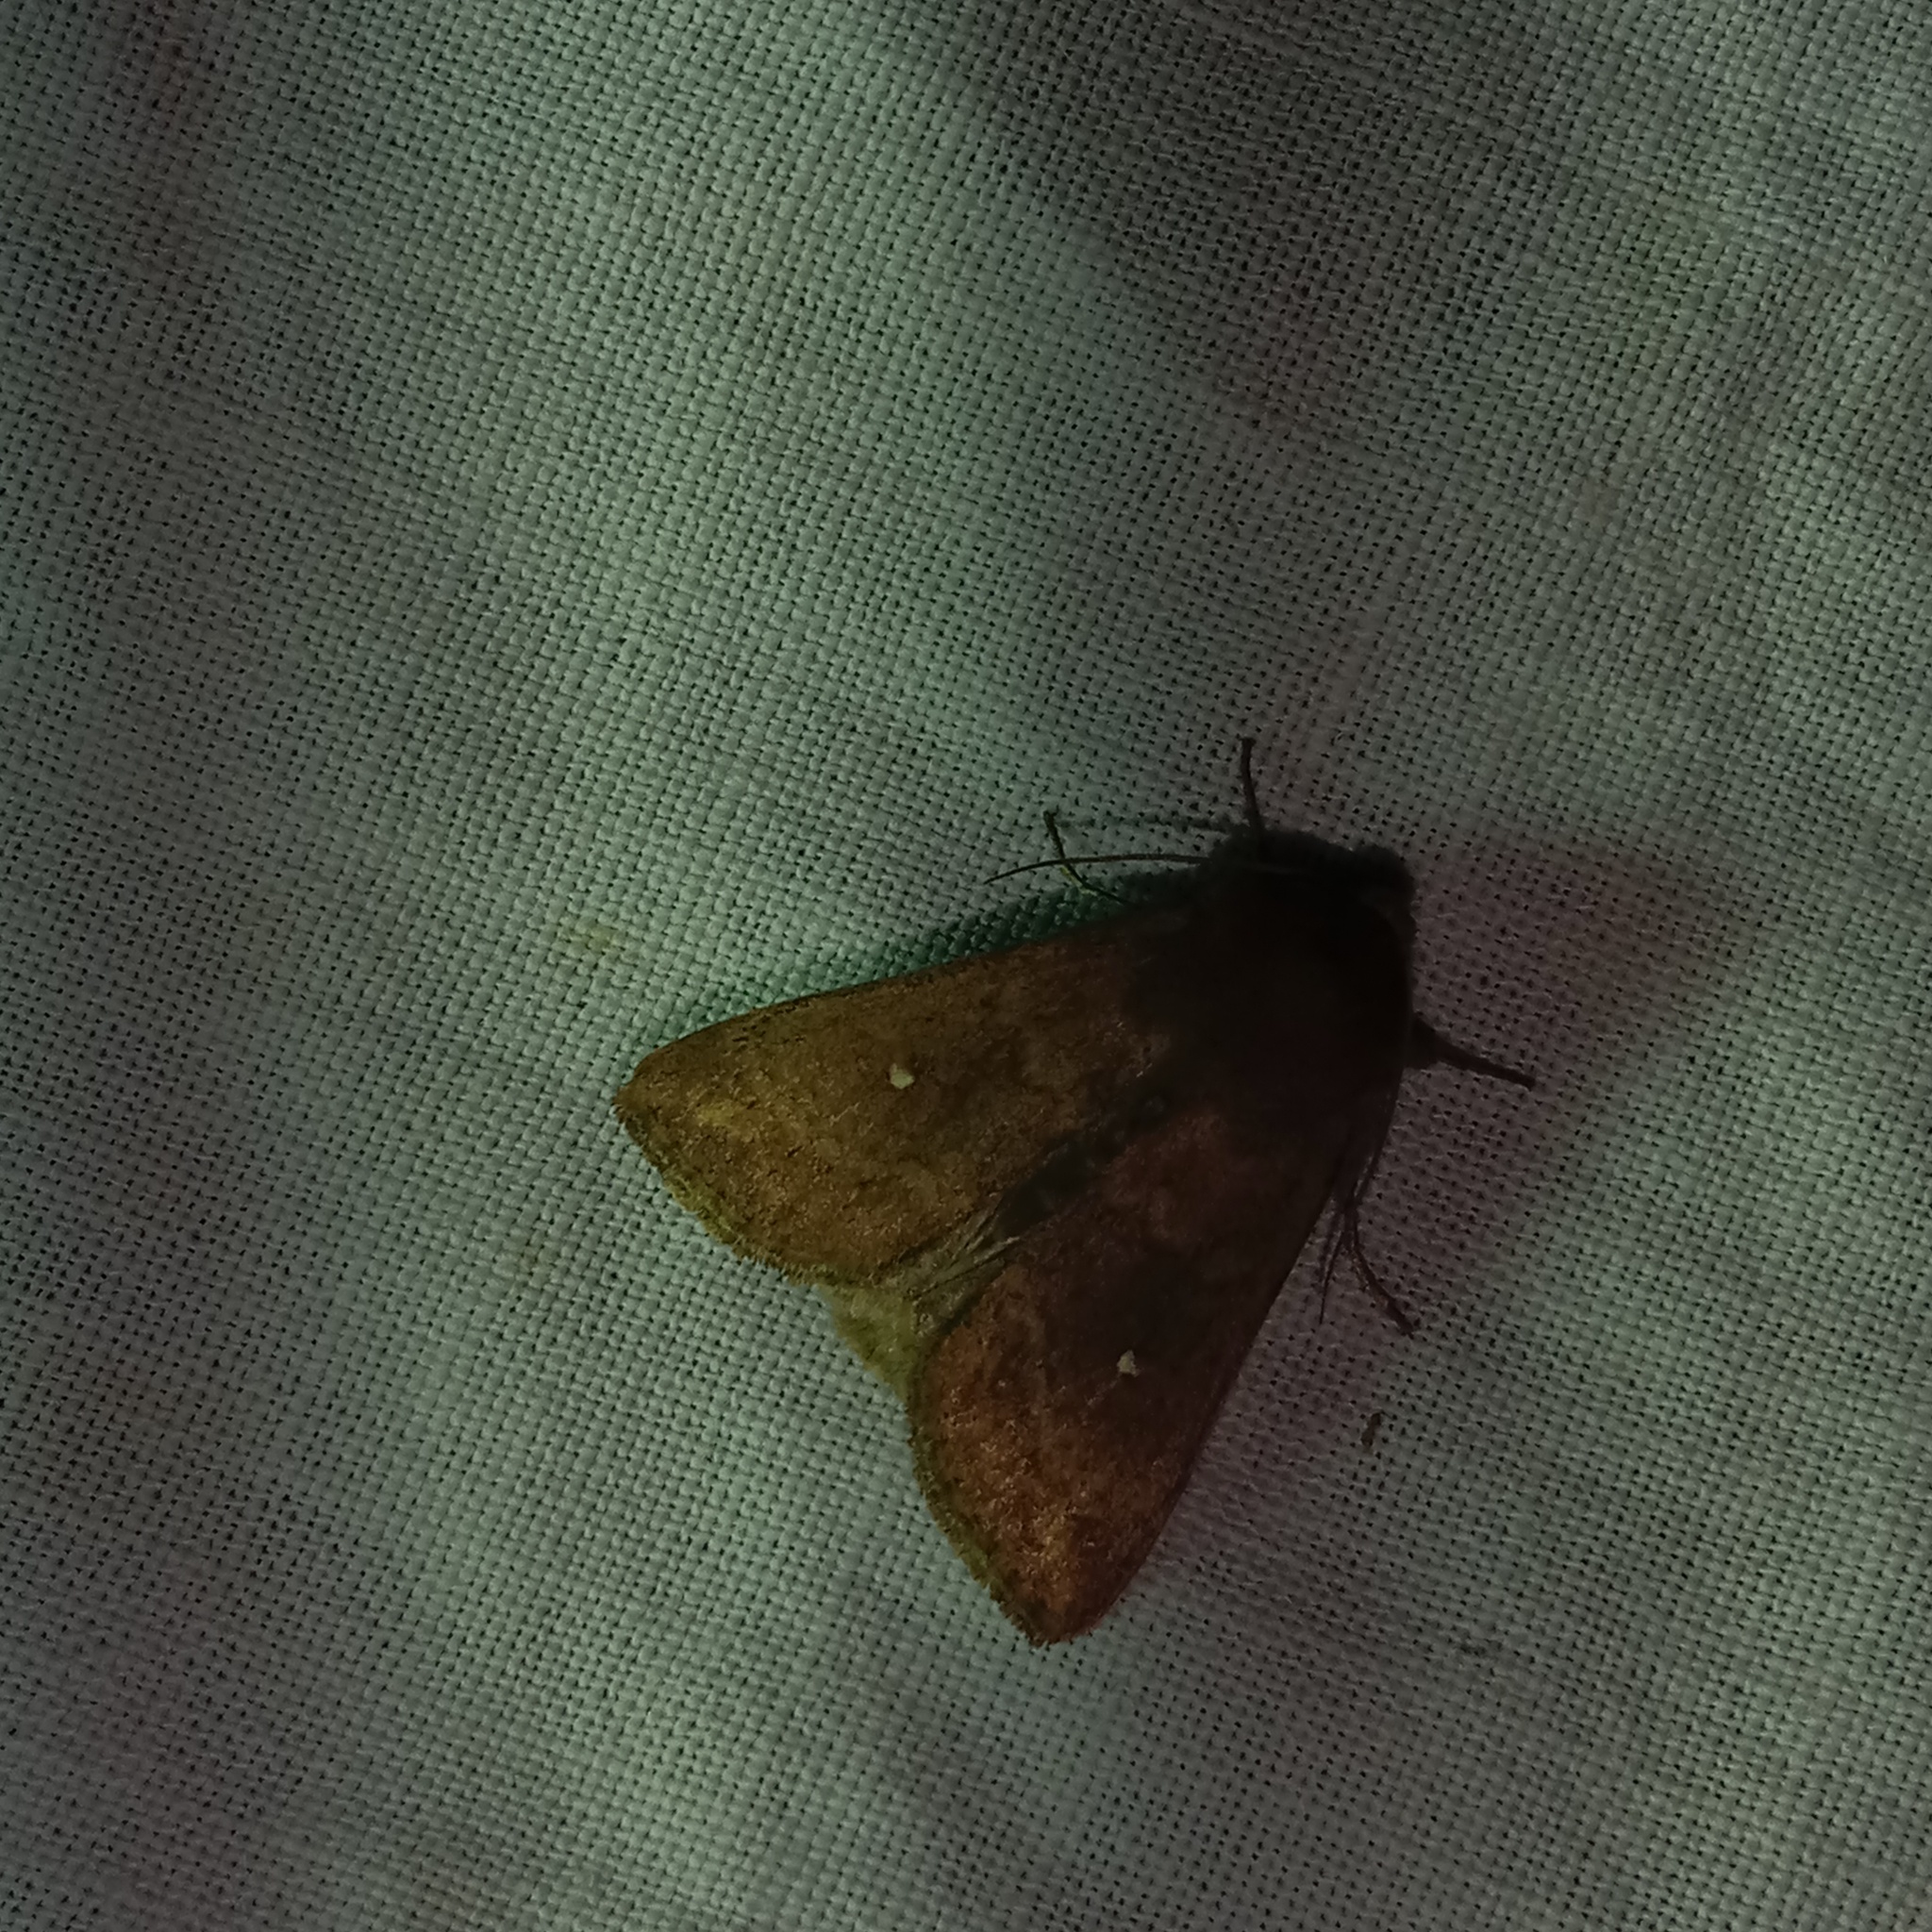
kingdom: Animalia
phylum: Arthropoda
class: Insecta
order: Lepidoptera
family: Noctuidae
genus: Mythimna
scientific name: Mythimna albipuncta
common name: White-point
